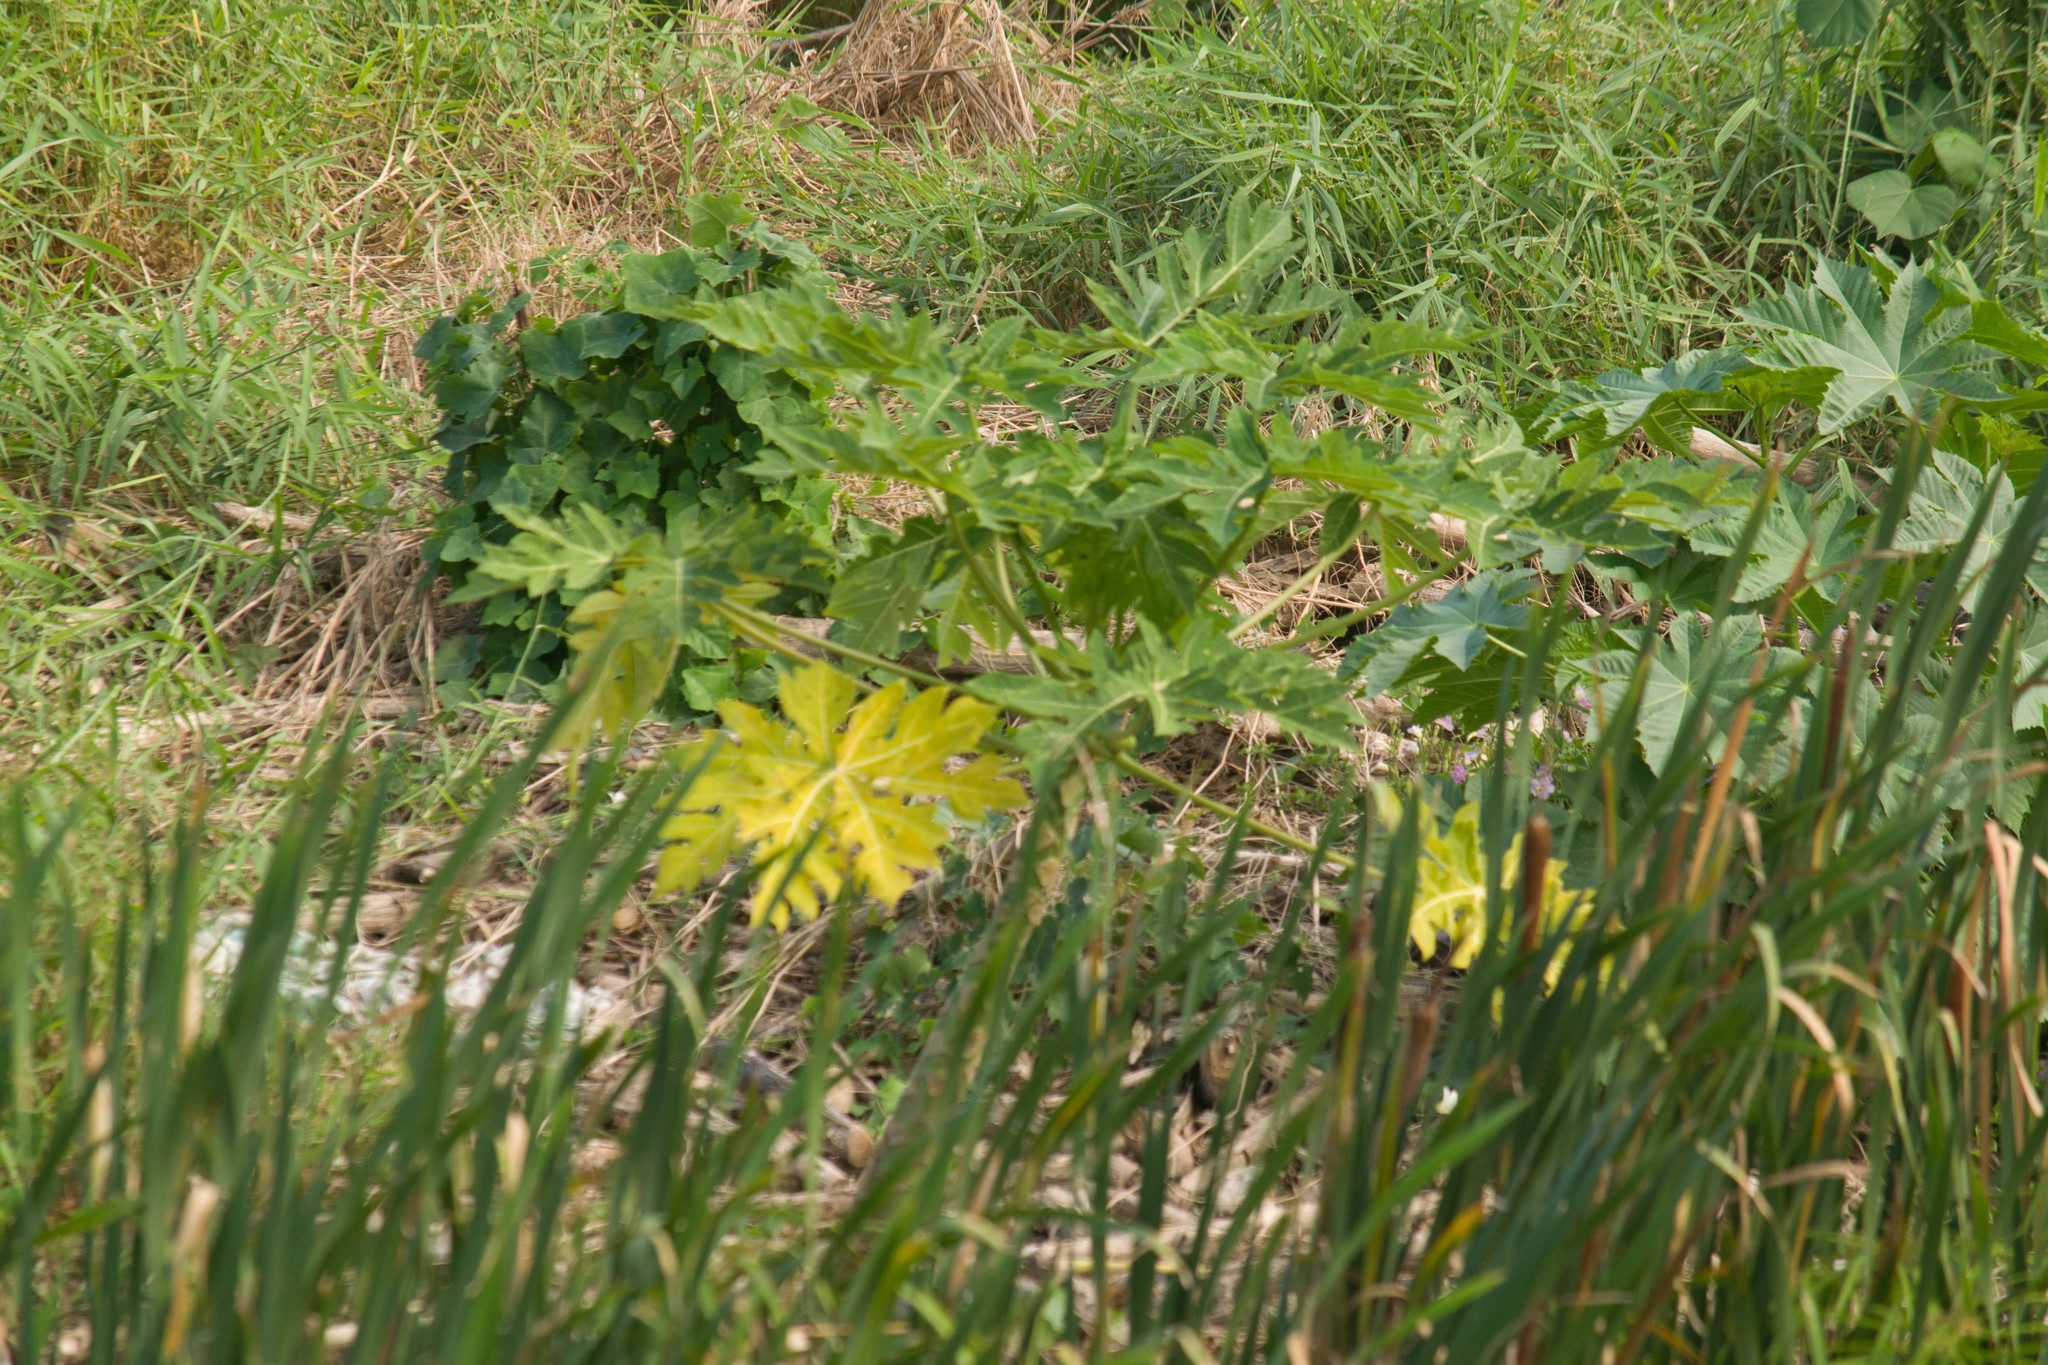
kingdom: Plantae
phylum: Tracheophyta
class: Magnoliopsida
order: Brassicales
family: Caricaceae
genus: Carica
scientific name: Carica papaya
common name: Papaya
